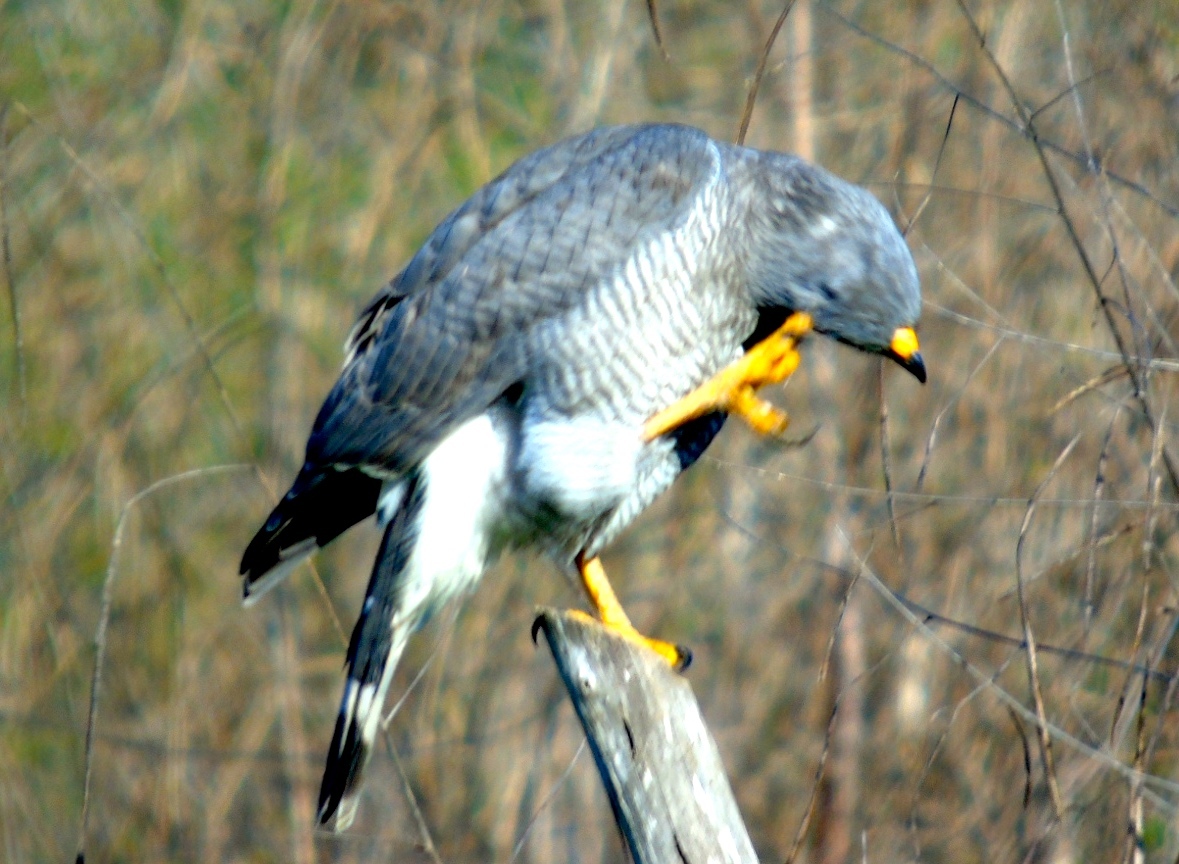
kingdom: Animalia
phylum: Chordata
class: Aves
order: Accipitriformes
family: Accipitridae
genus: Buteo
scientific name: Buteo nitidus
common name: Grey-lined hawk
